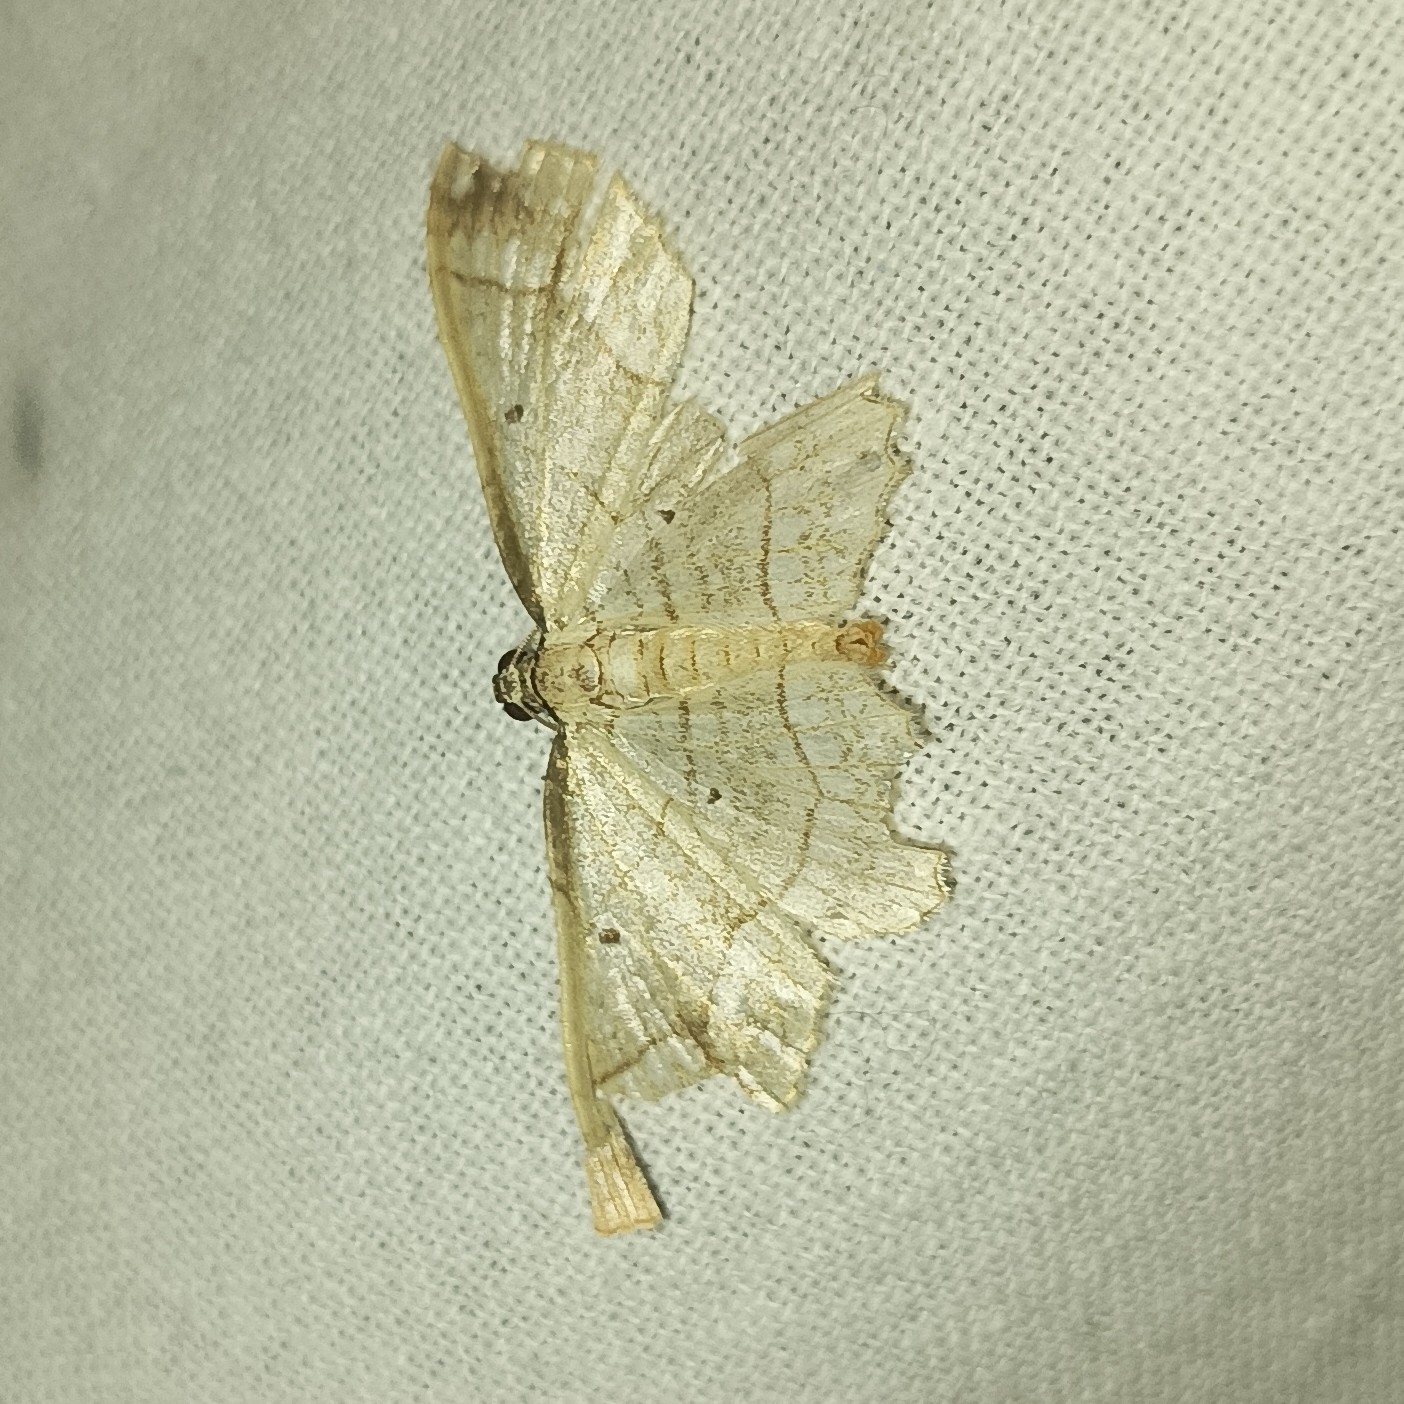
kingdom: Animalia
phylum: Arthropoda
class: Insecta
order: Lepidoptera
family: Geometridae
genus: Laciniodes
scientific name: Laciniodes plurilinearia
